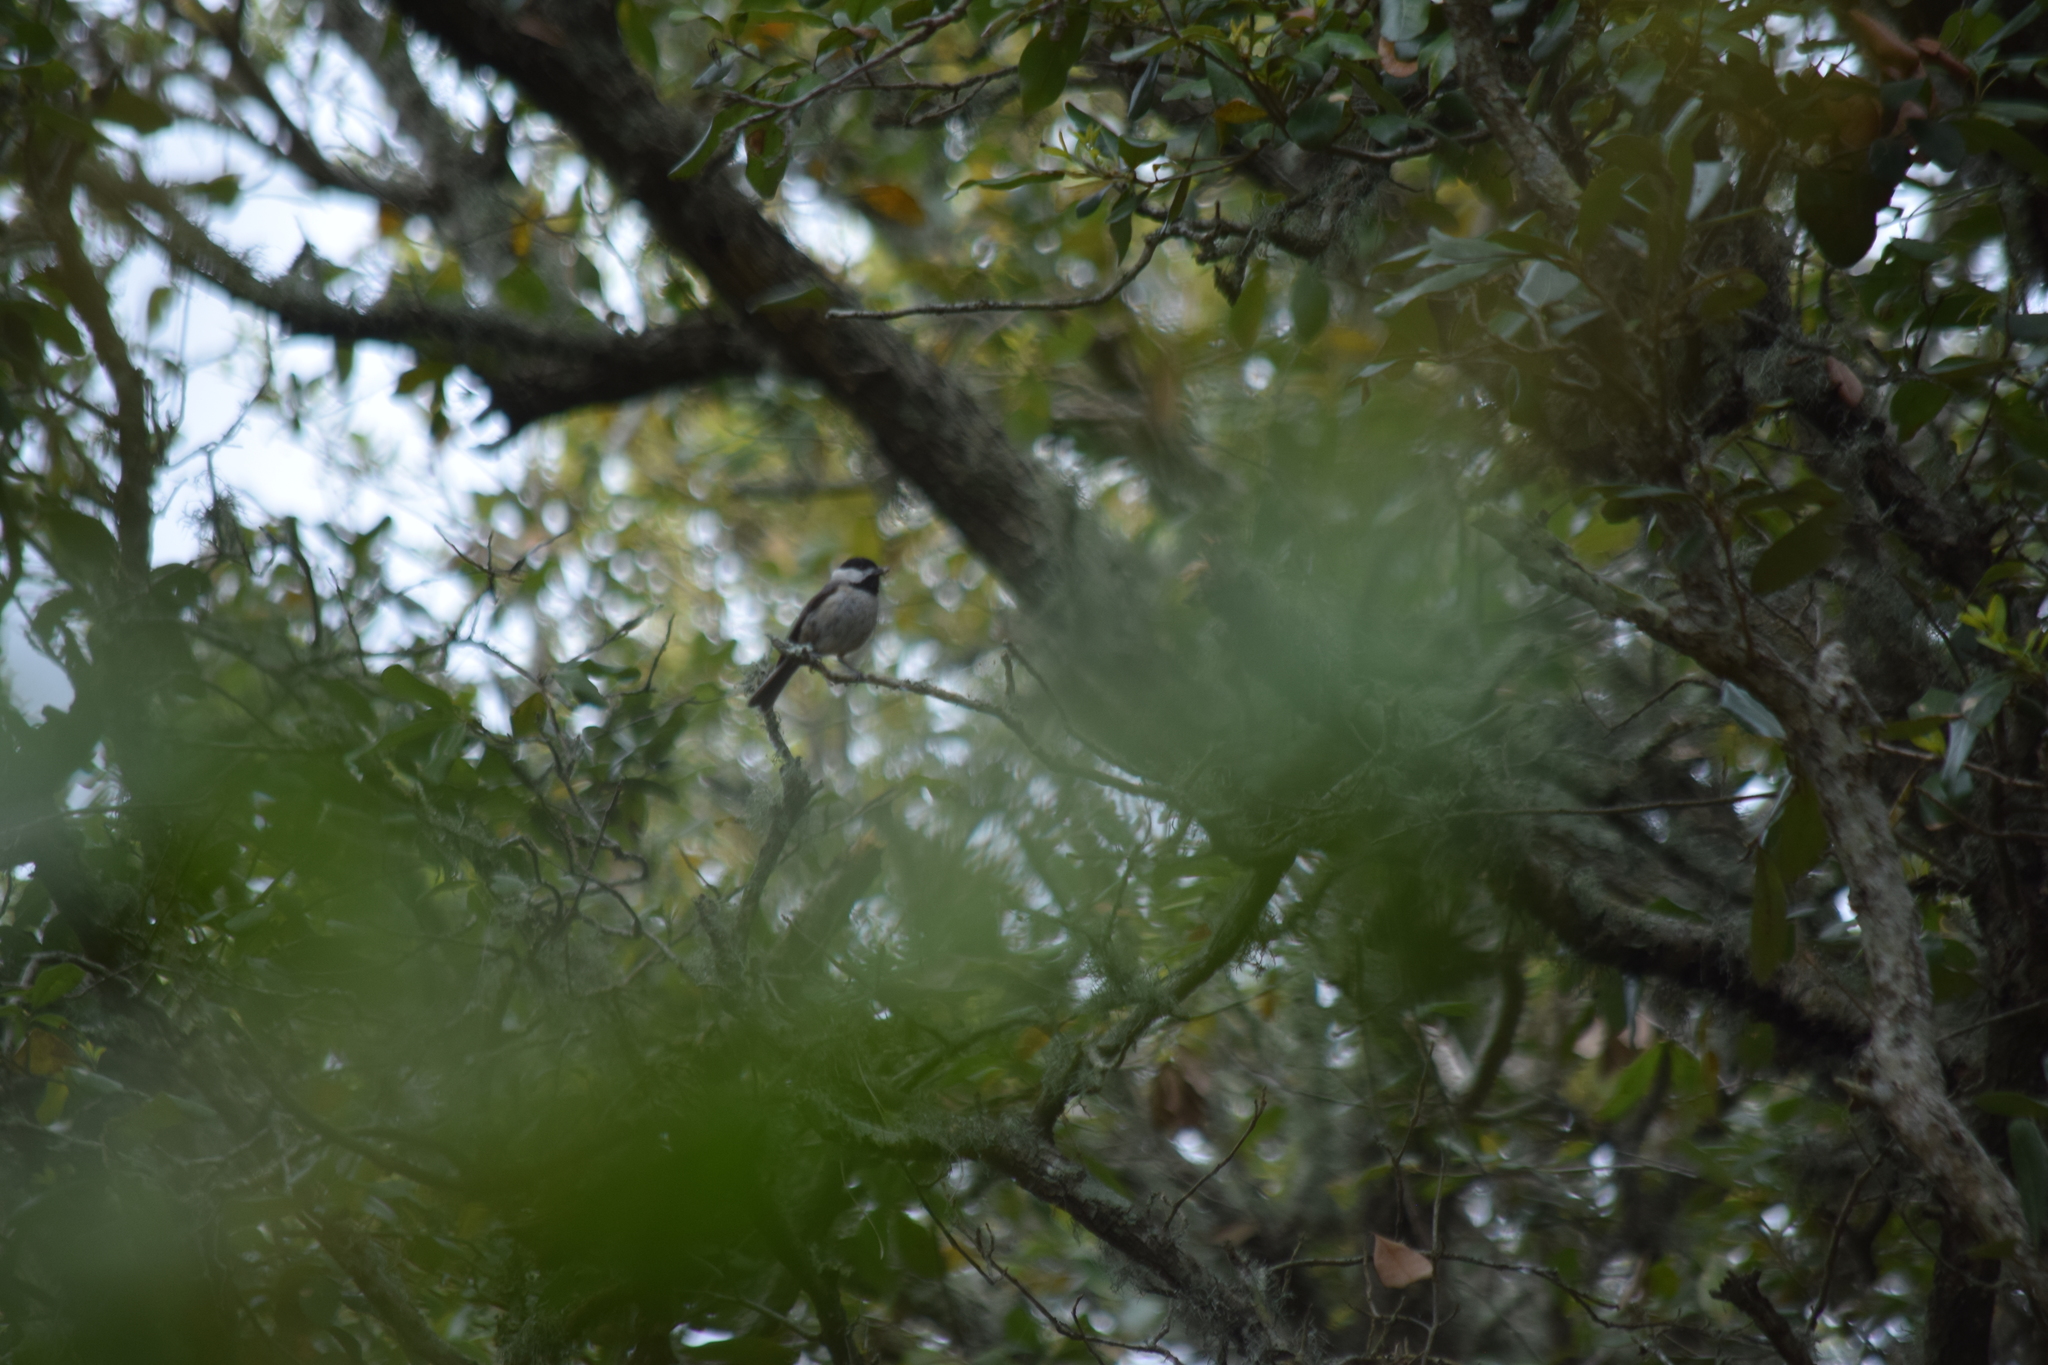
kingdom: Animalia
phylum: Chordata
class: Aves
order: Passeriformes
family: Paridae
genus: Poecile
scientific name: Poecile carolinensis
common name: Carolina chickadee
